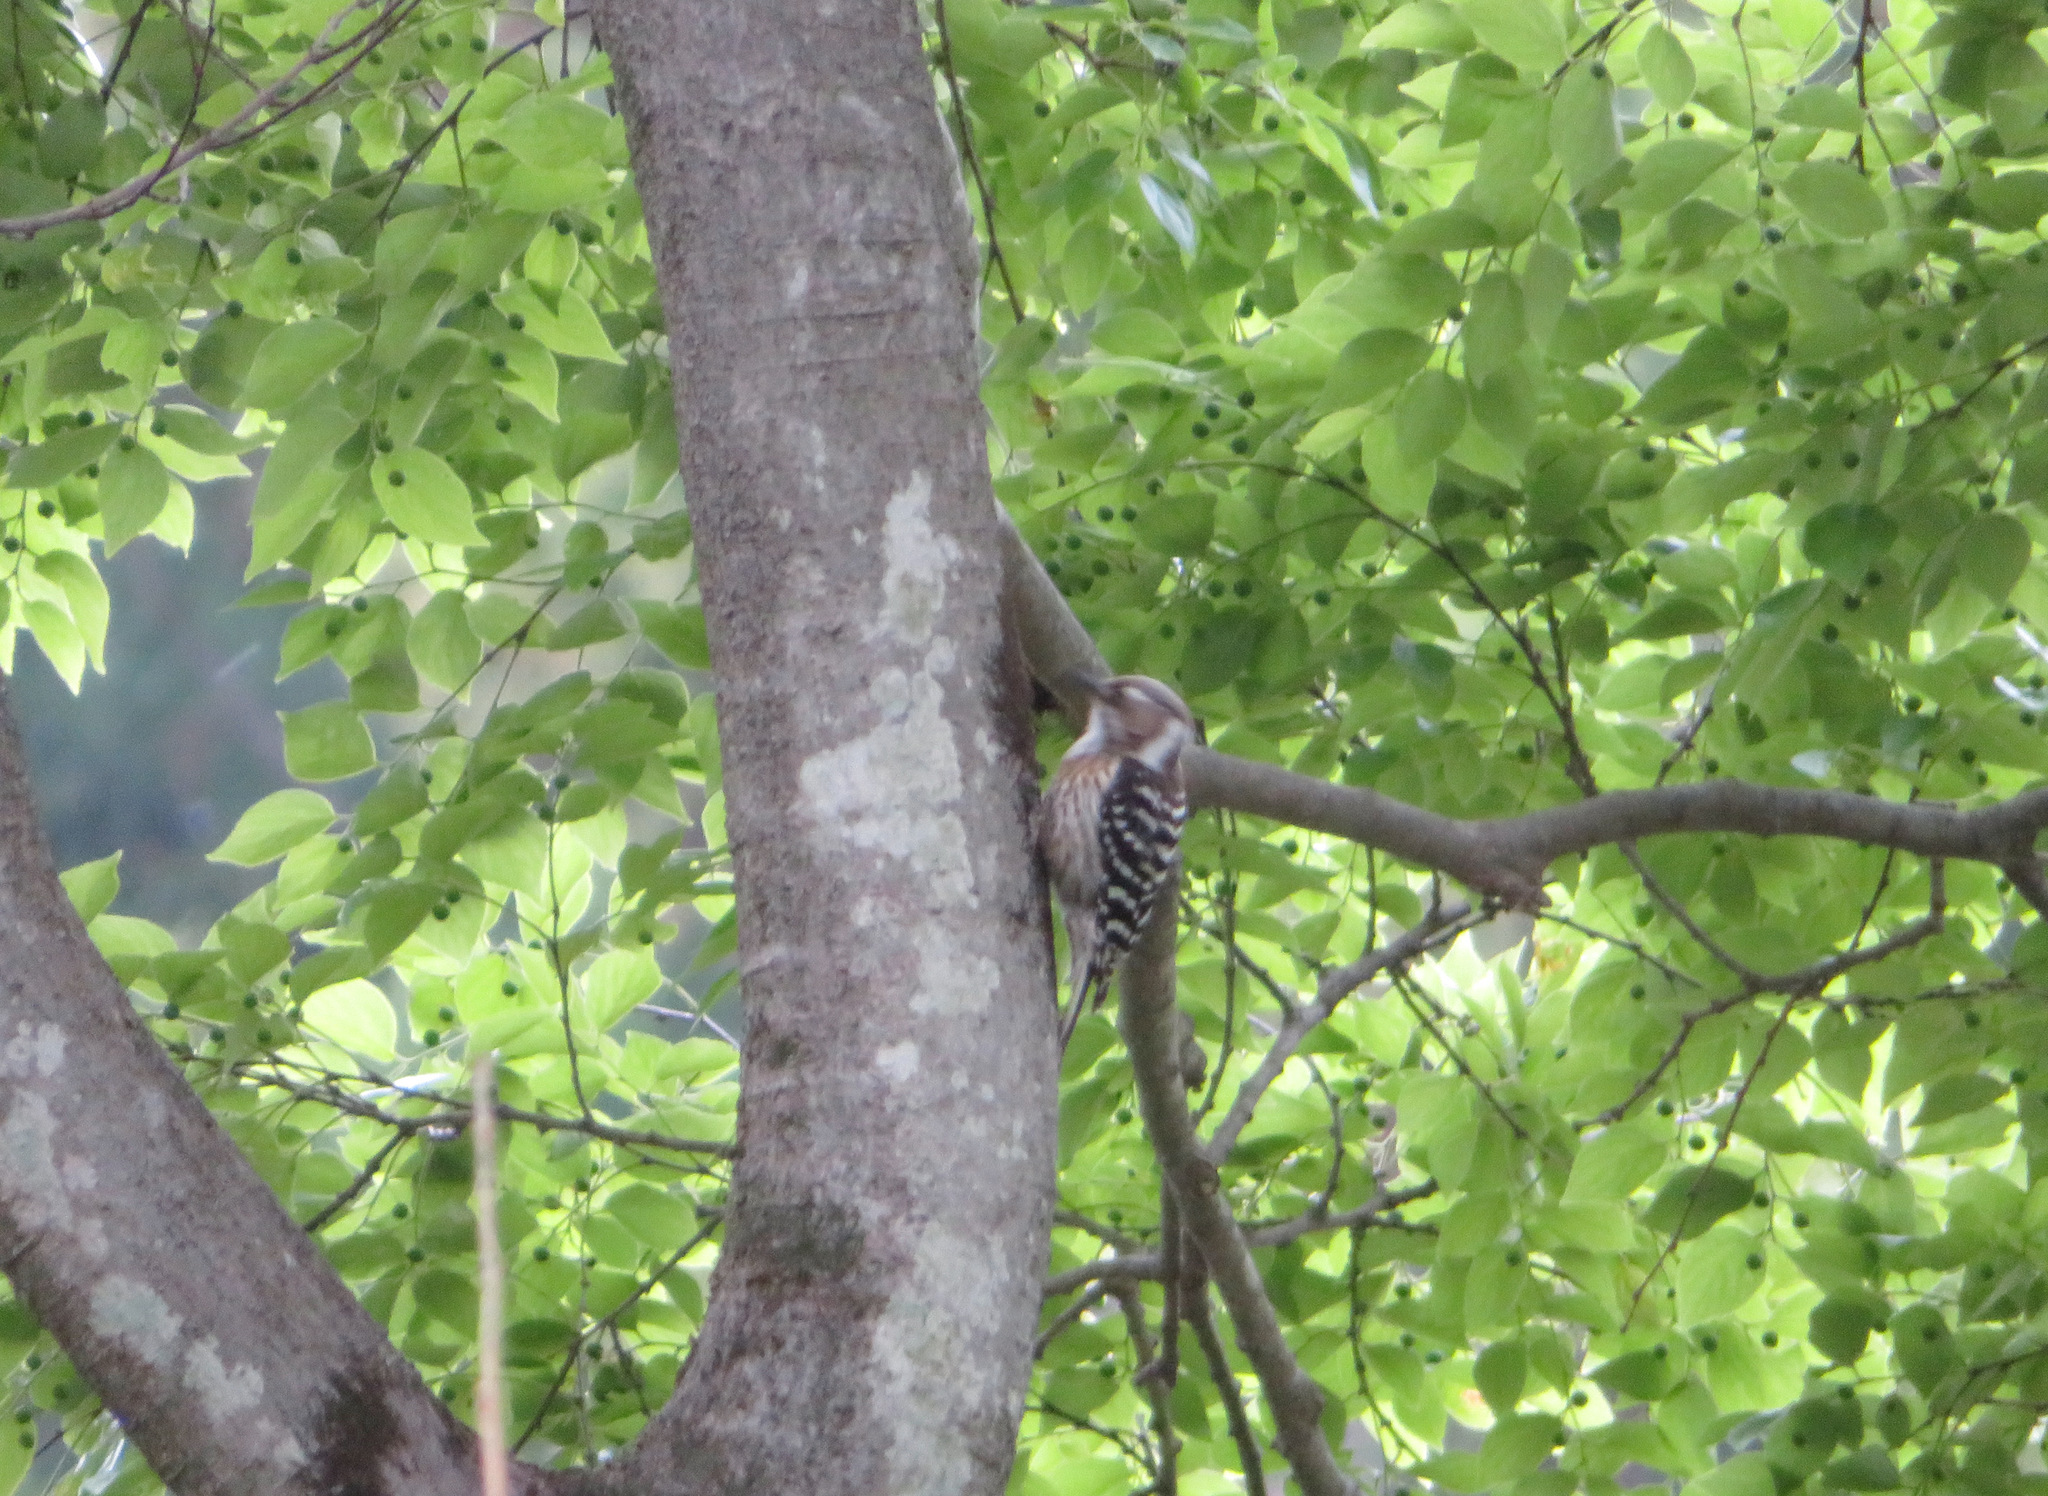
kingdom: Animalia
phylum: Chordata
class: Aves
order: Piciformes
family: Picidae
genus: Yungipicus
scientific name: Yungipicus kizuki
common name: Japanese pygmy woodpecker
